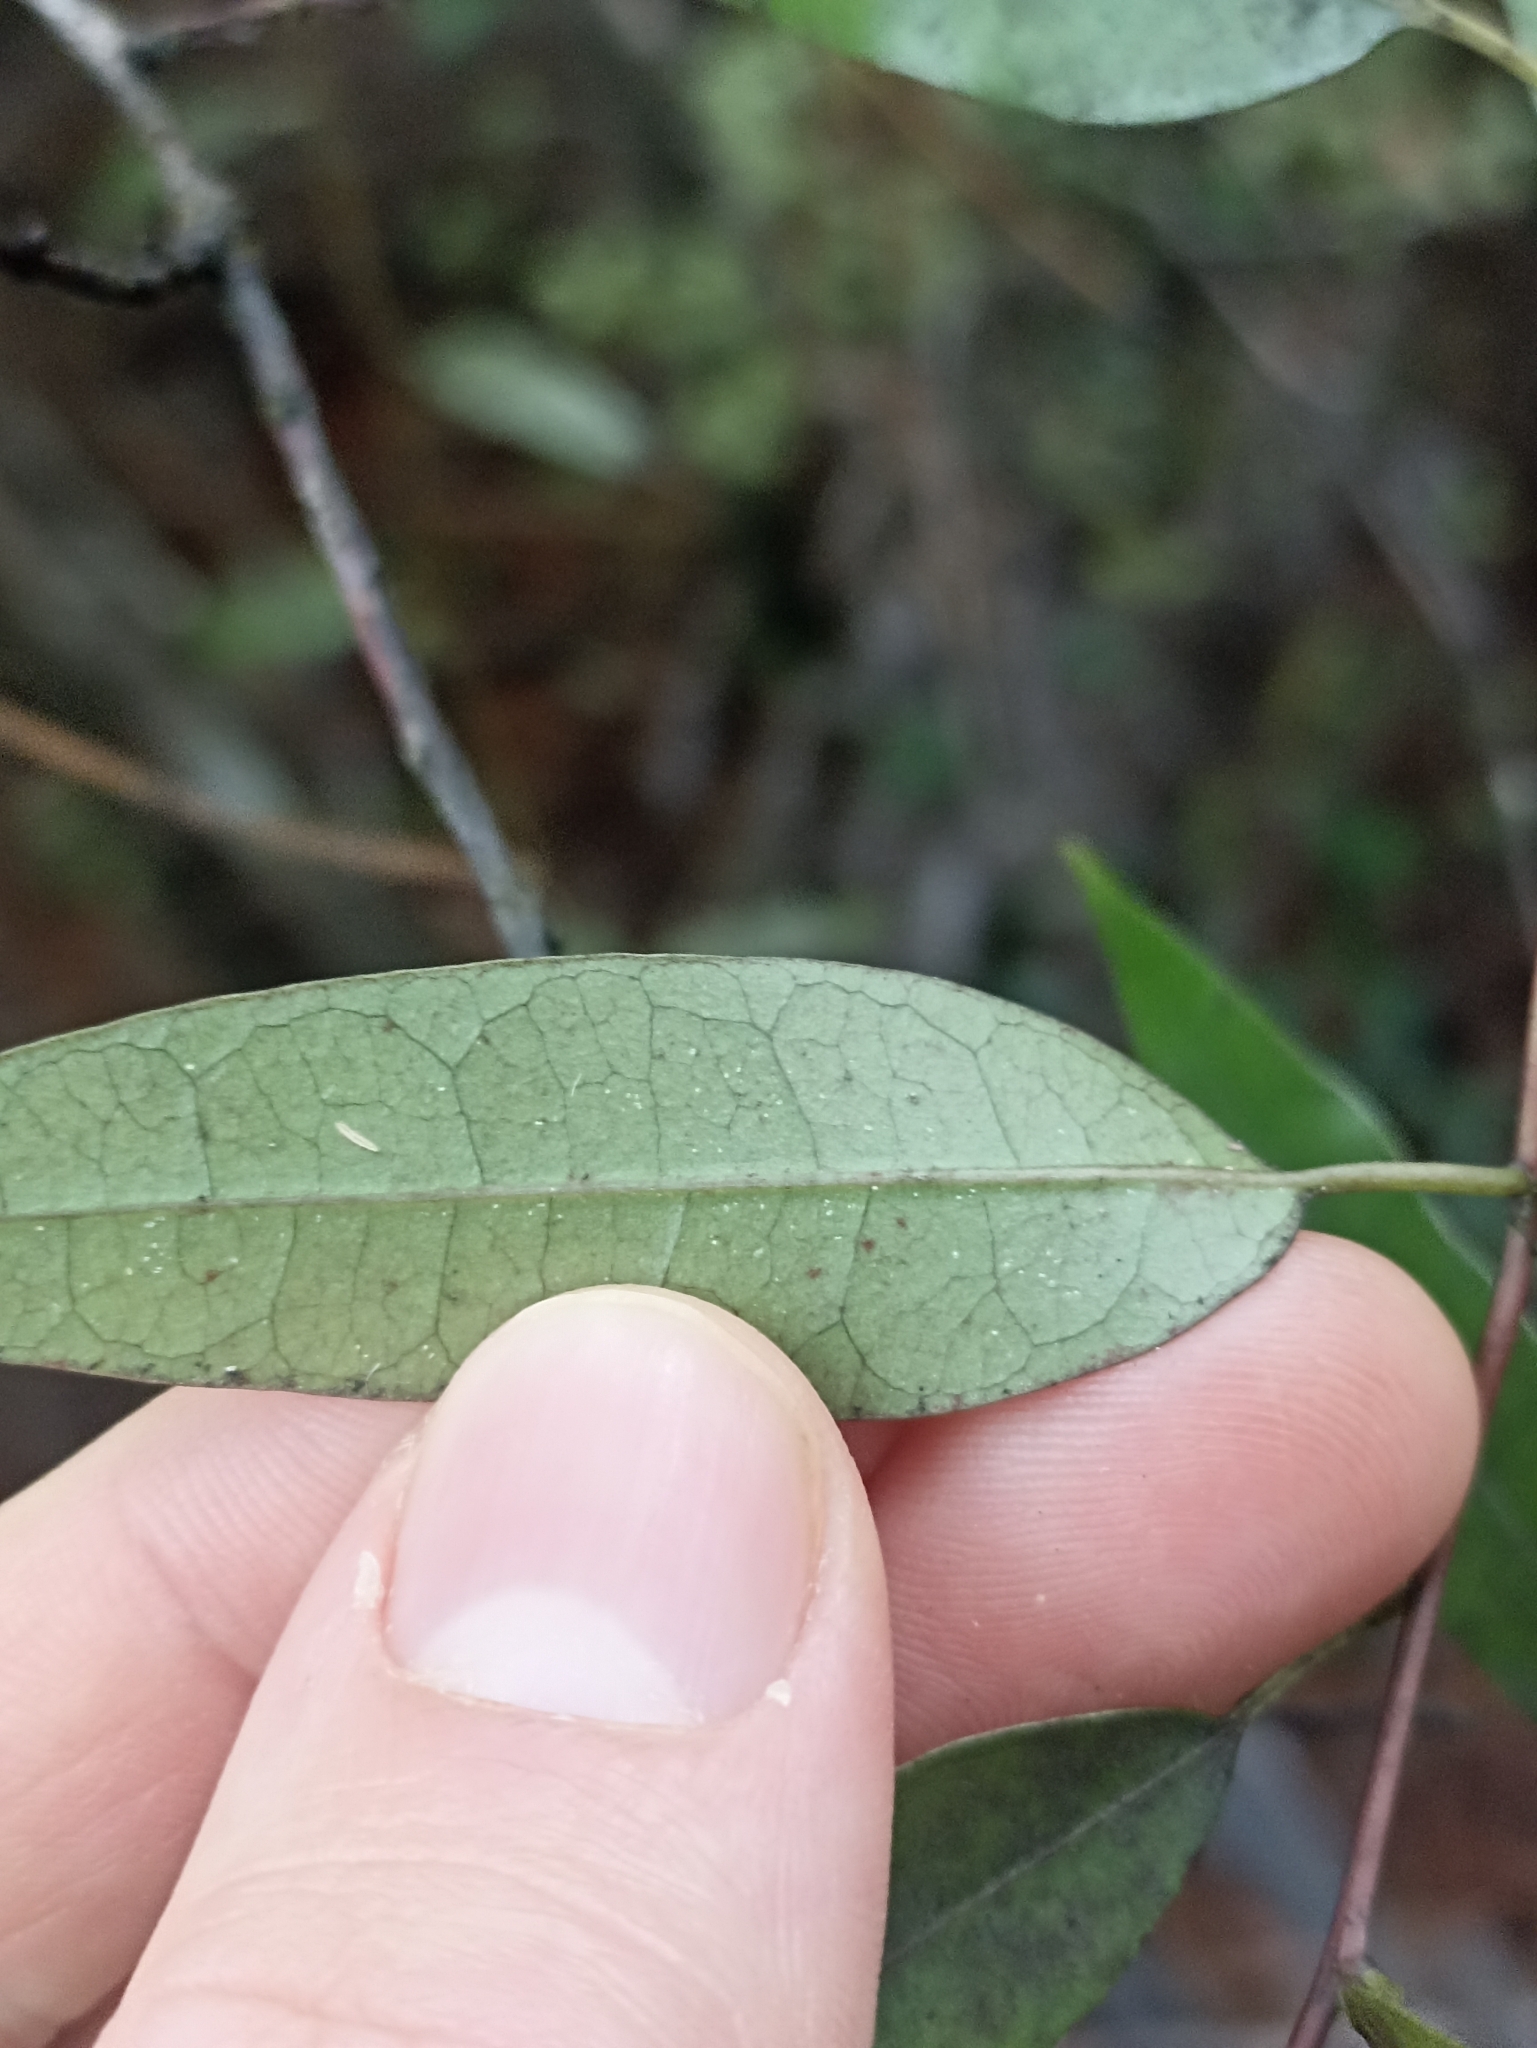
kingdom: Plantae
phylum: Tracheophyta
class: Magnoliopsida
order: Malpighiales
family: Passifloraceae
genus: Passiflora
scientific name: Passiflora tetrandra
